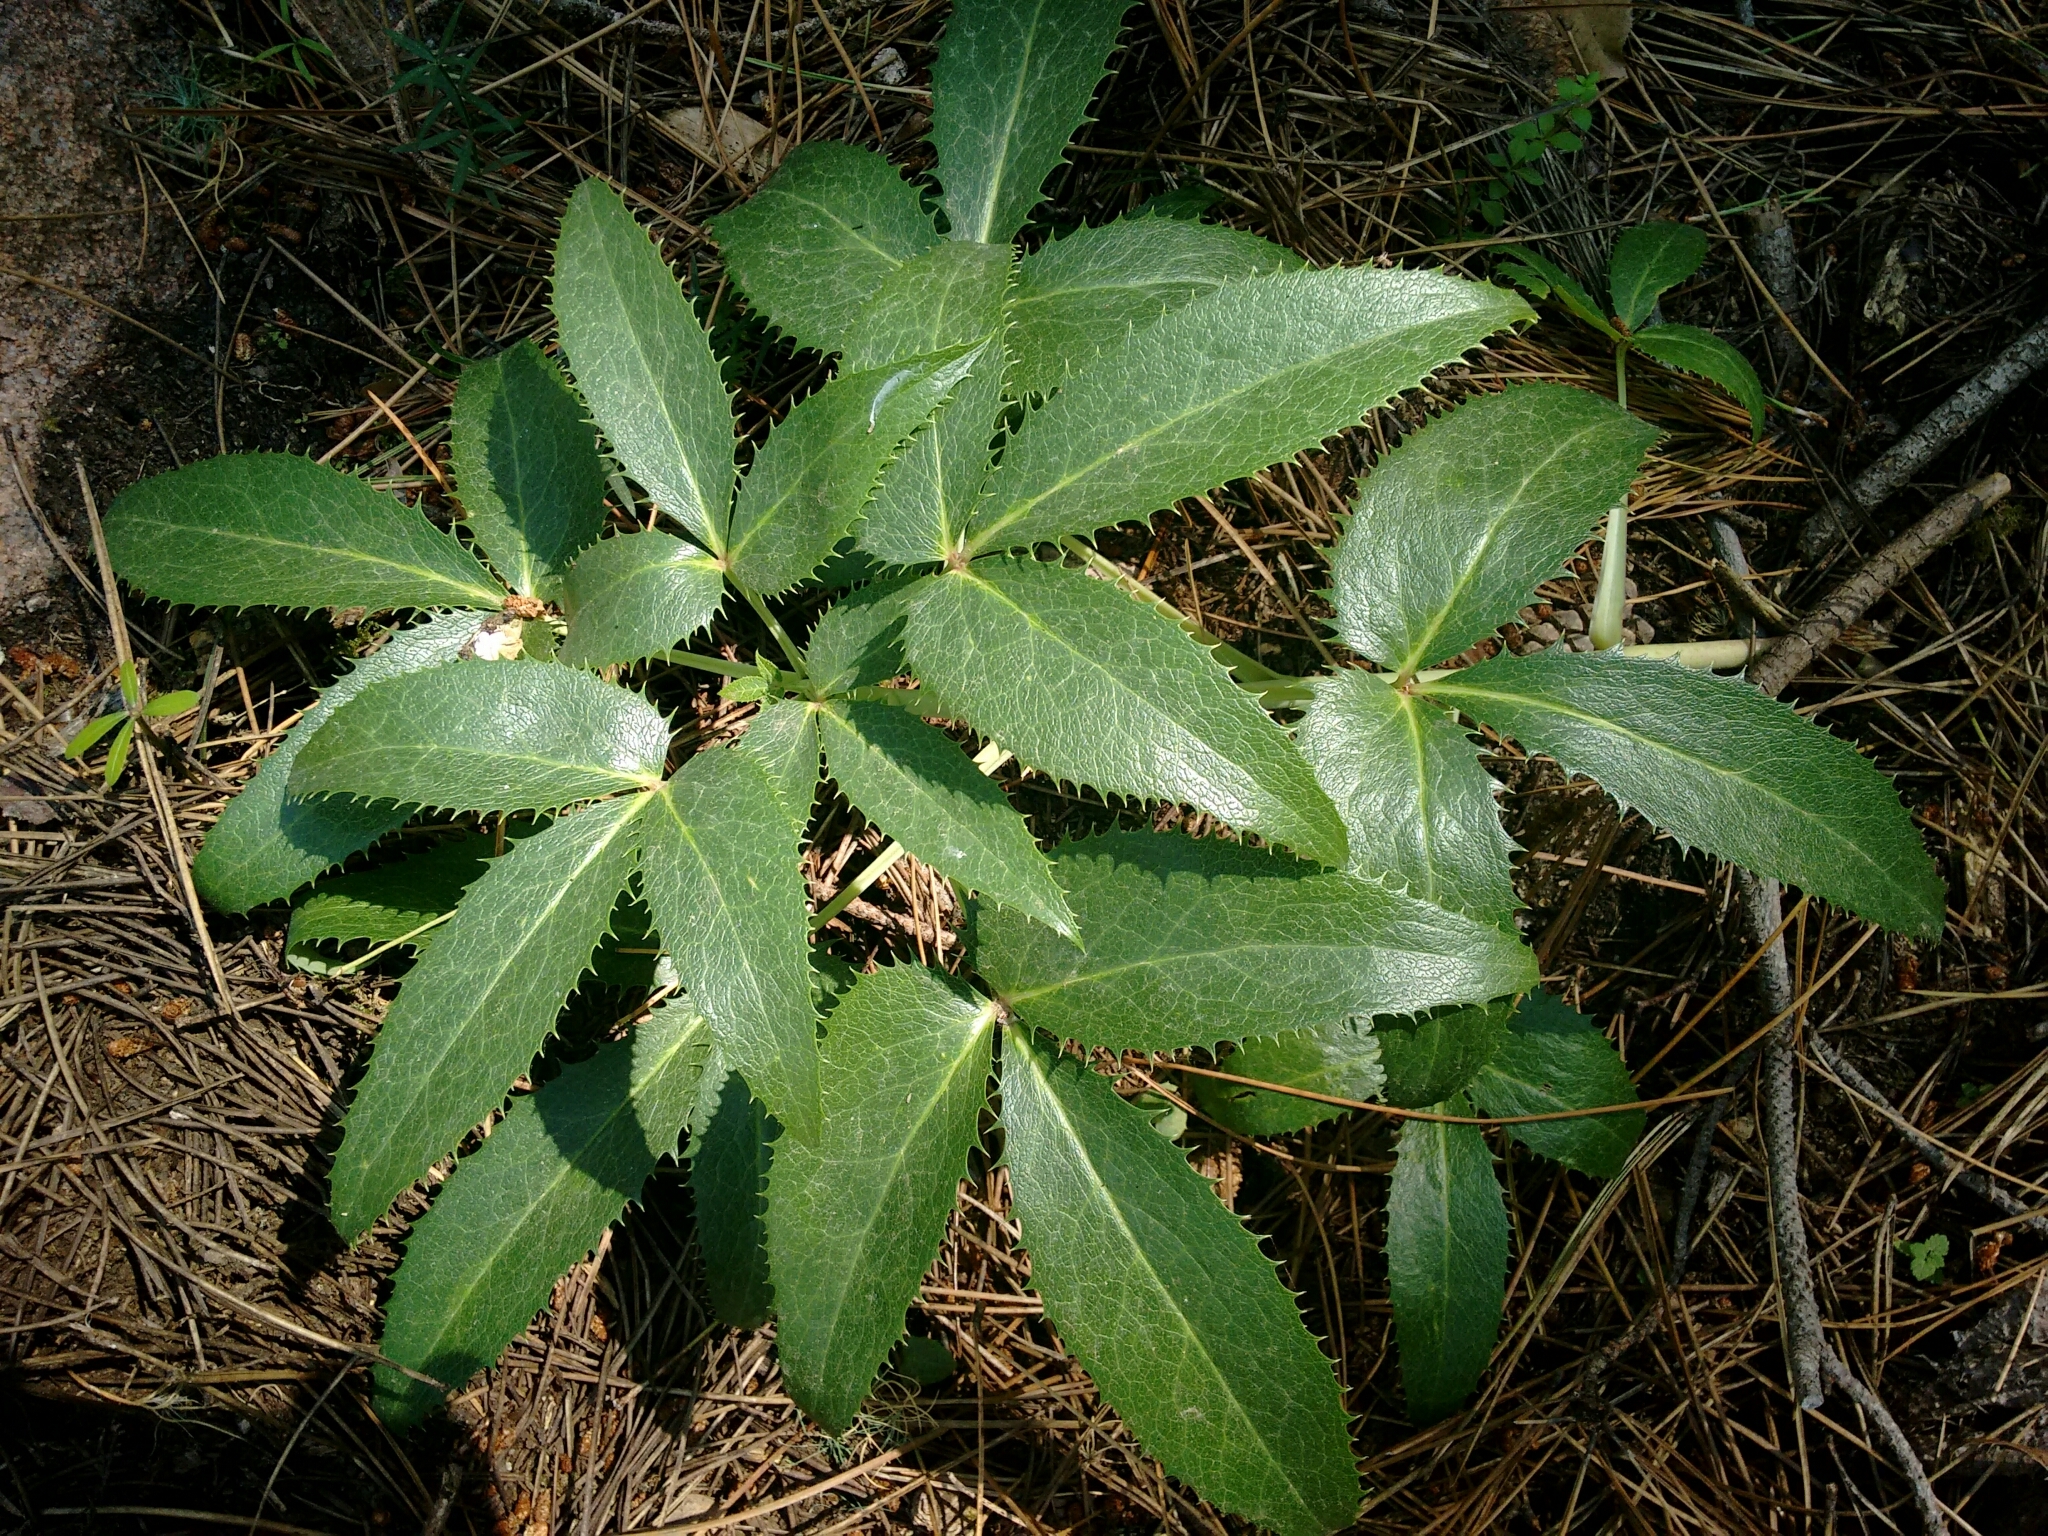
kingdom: Plantae
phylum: Tracheophyta
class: Magnoliopsida
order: Ranunculales
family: Ranunculaceae
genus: Helleborus
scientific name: Helleborus argutifolius
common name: Corsican hellebore
